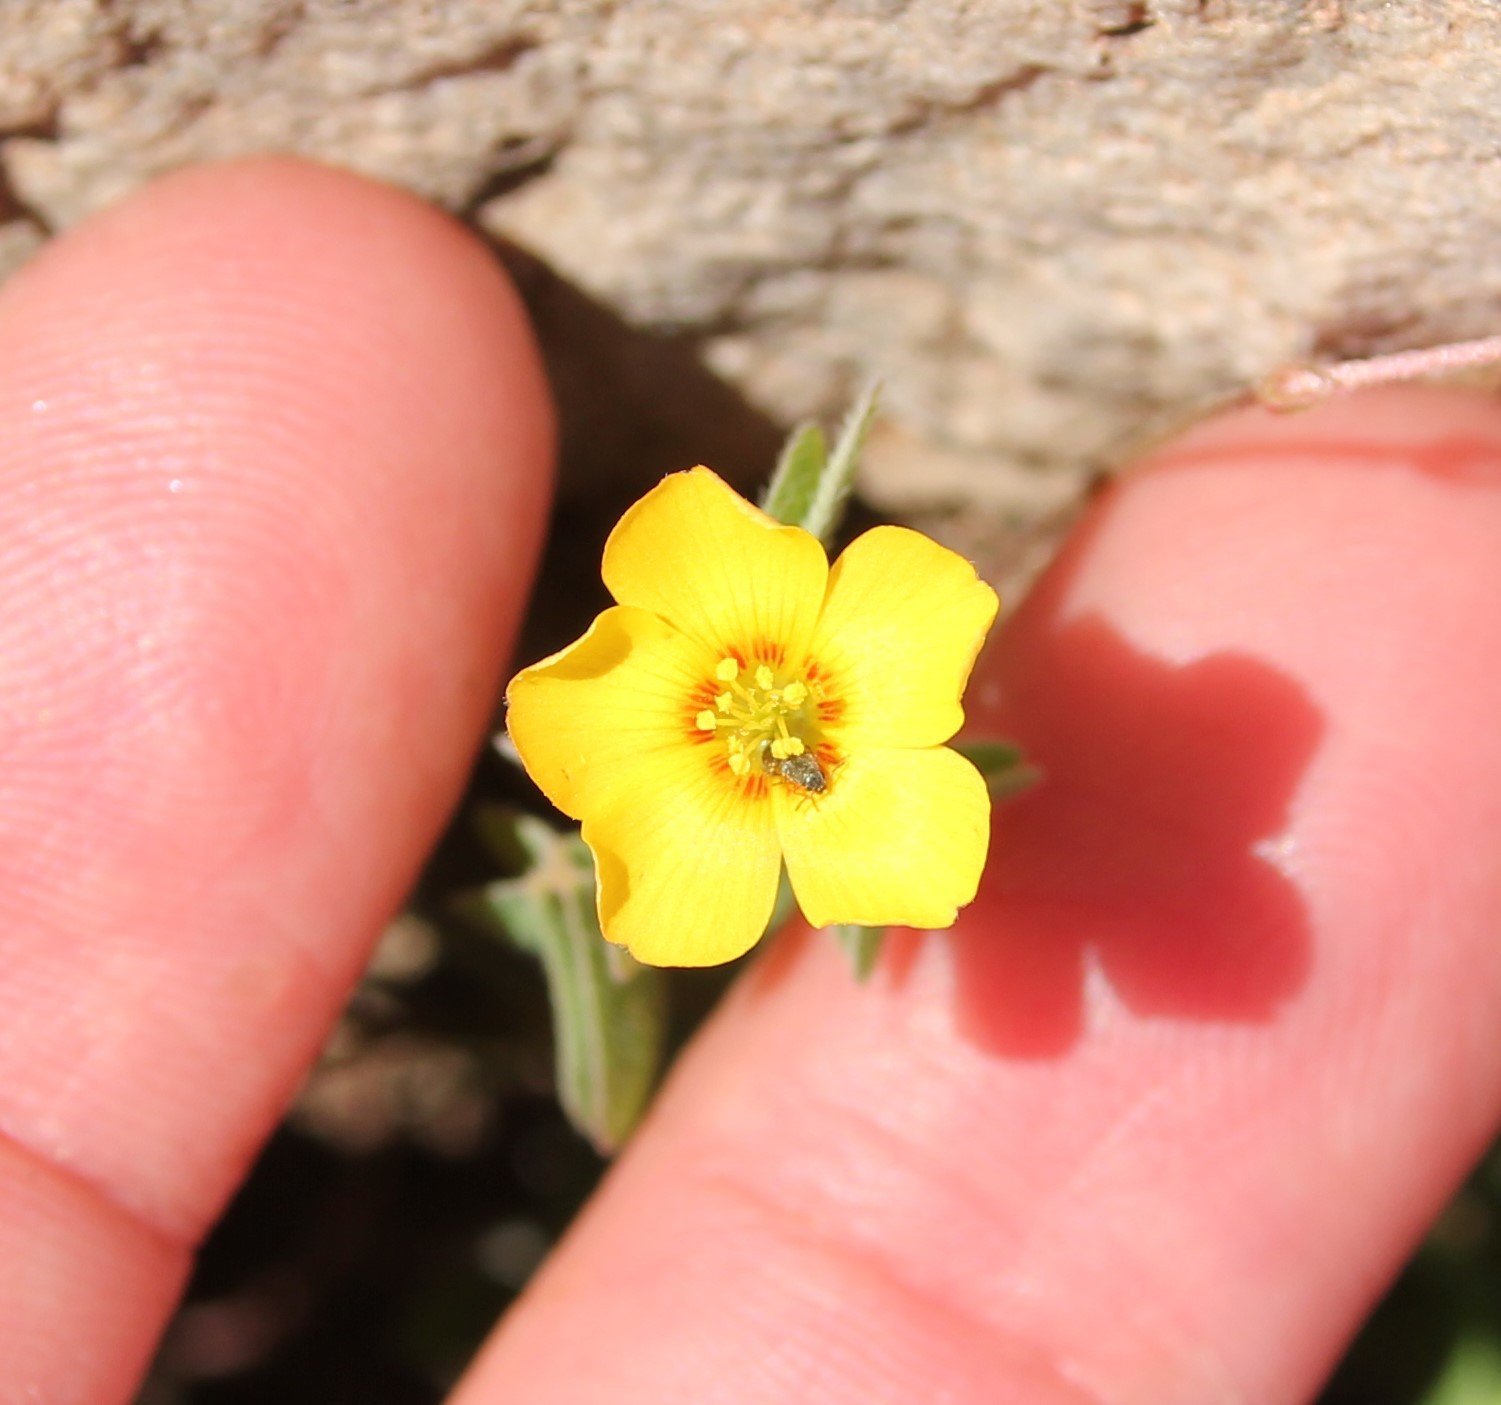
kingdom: Plantae
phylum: Tracheophyta
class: Magnoliopsida
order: Oxalidales
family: Oxalidaceae
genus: Oxalis
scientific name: Oxalis californica
